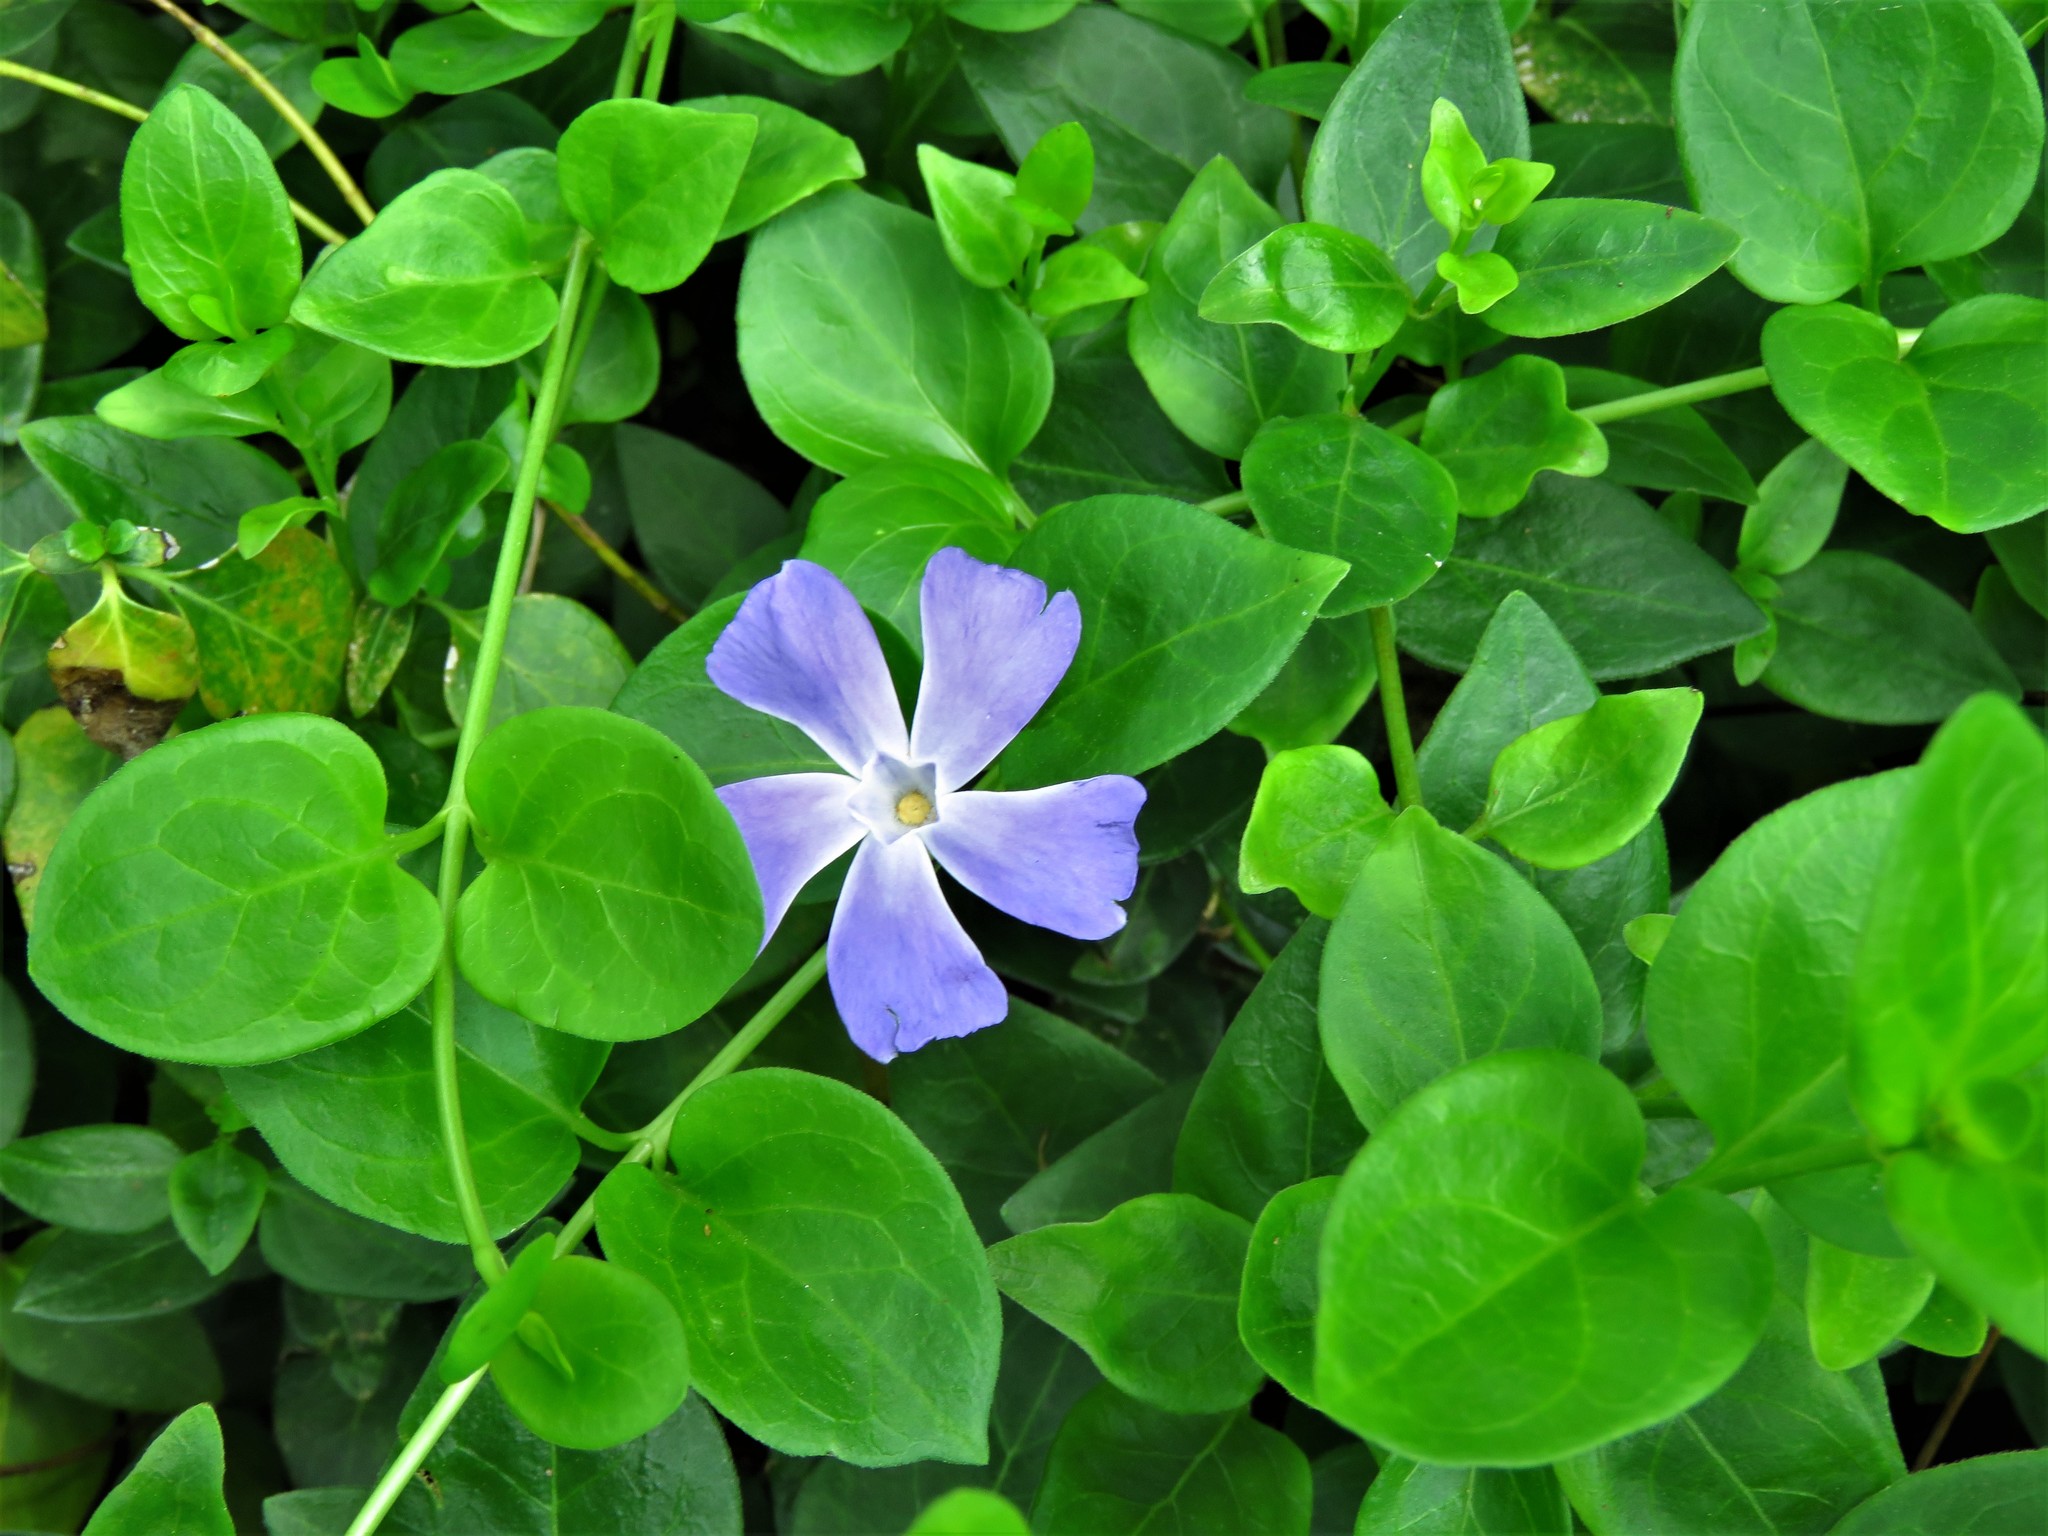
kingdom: Plantae
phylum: Tracheophyta
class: Magnoliopsida
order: Gentianales
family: Apocynaceae
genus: Vinca
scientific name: Vinca major
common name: Greater periwinkle
